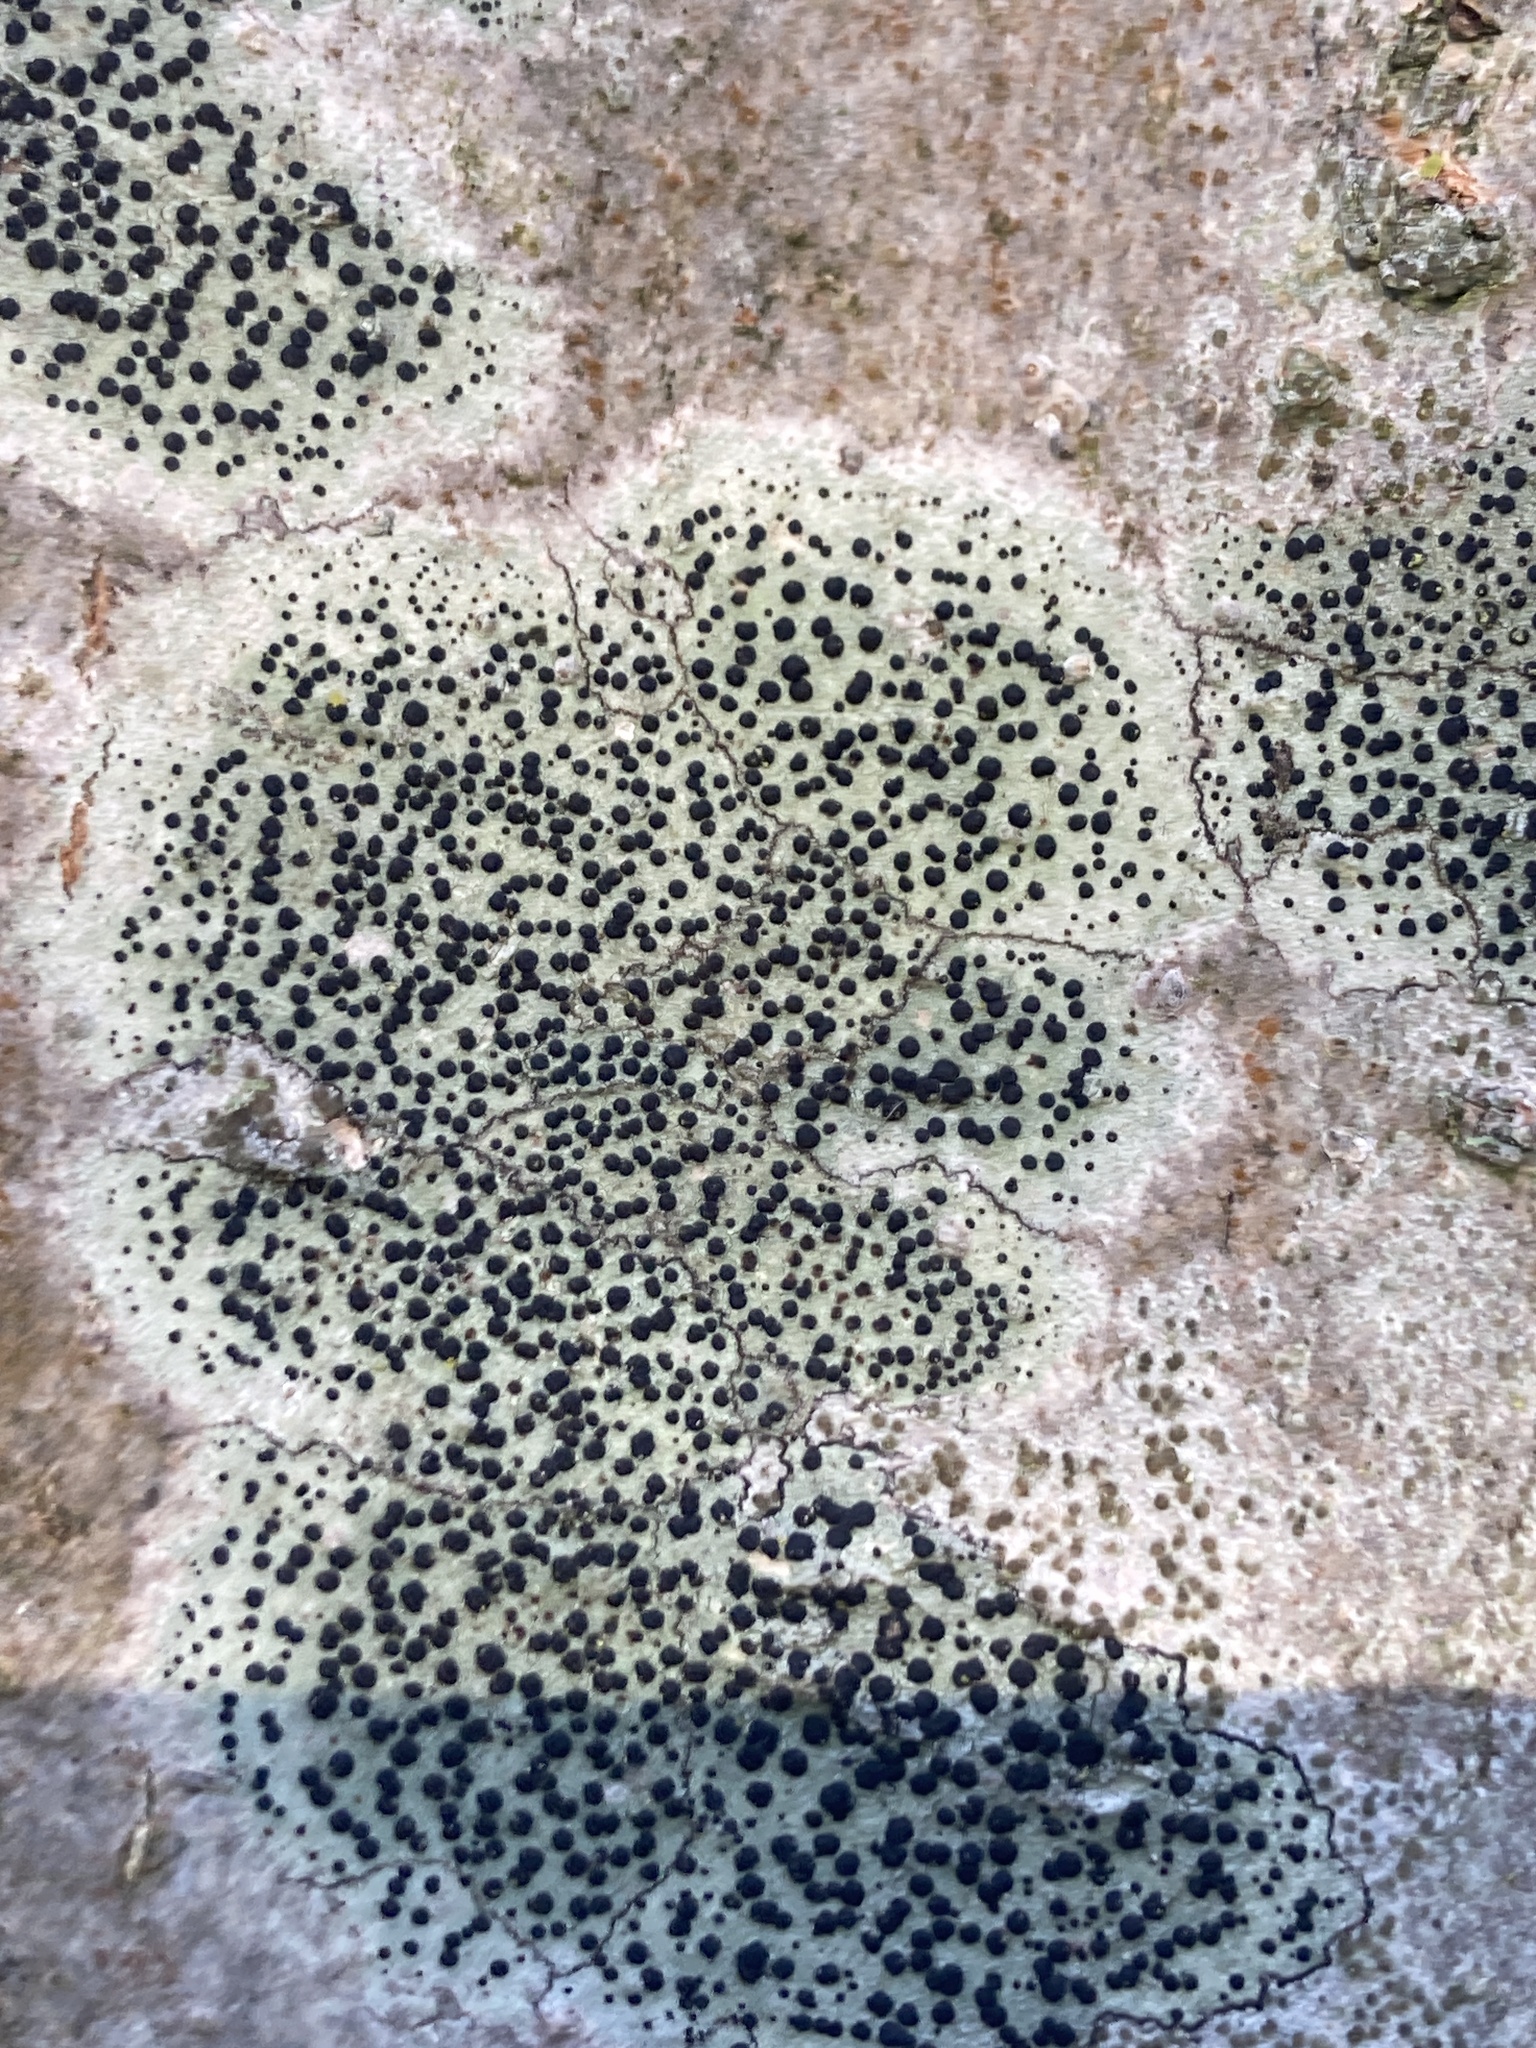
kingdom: Fungi
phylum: Ascomycota
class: Lecanoromycetes
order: Lecanorales
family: Lecanoraceae
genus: Lecidella
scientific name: Lecidella elaeochroma
